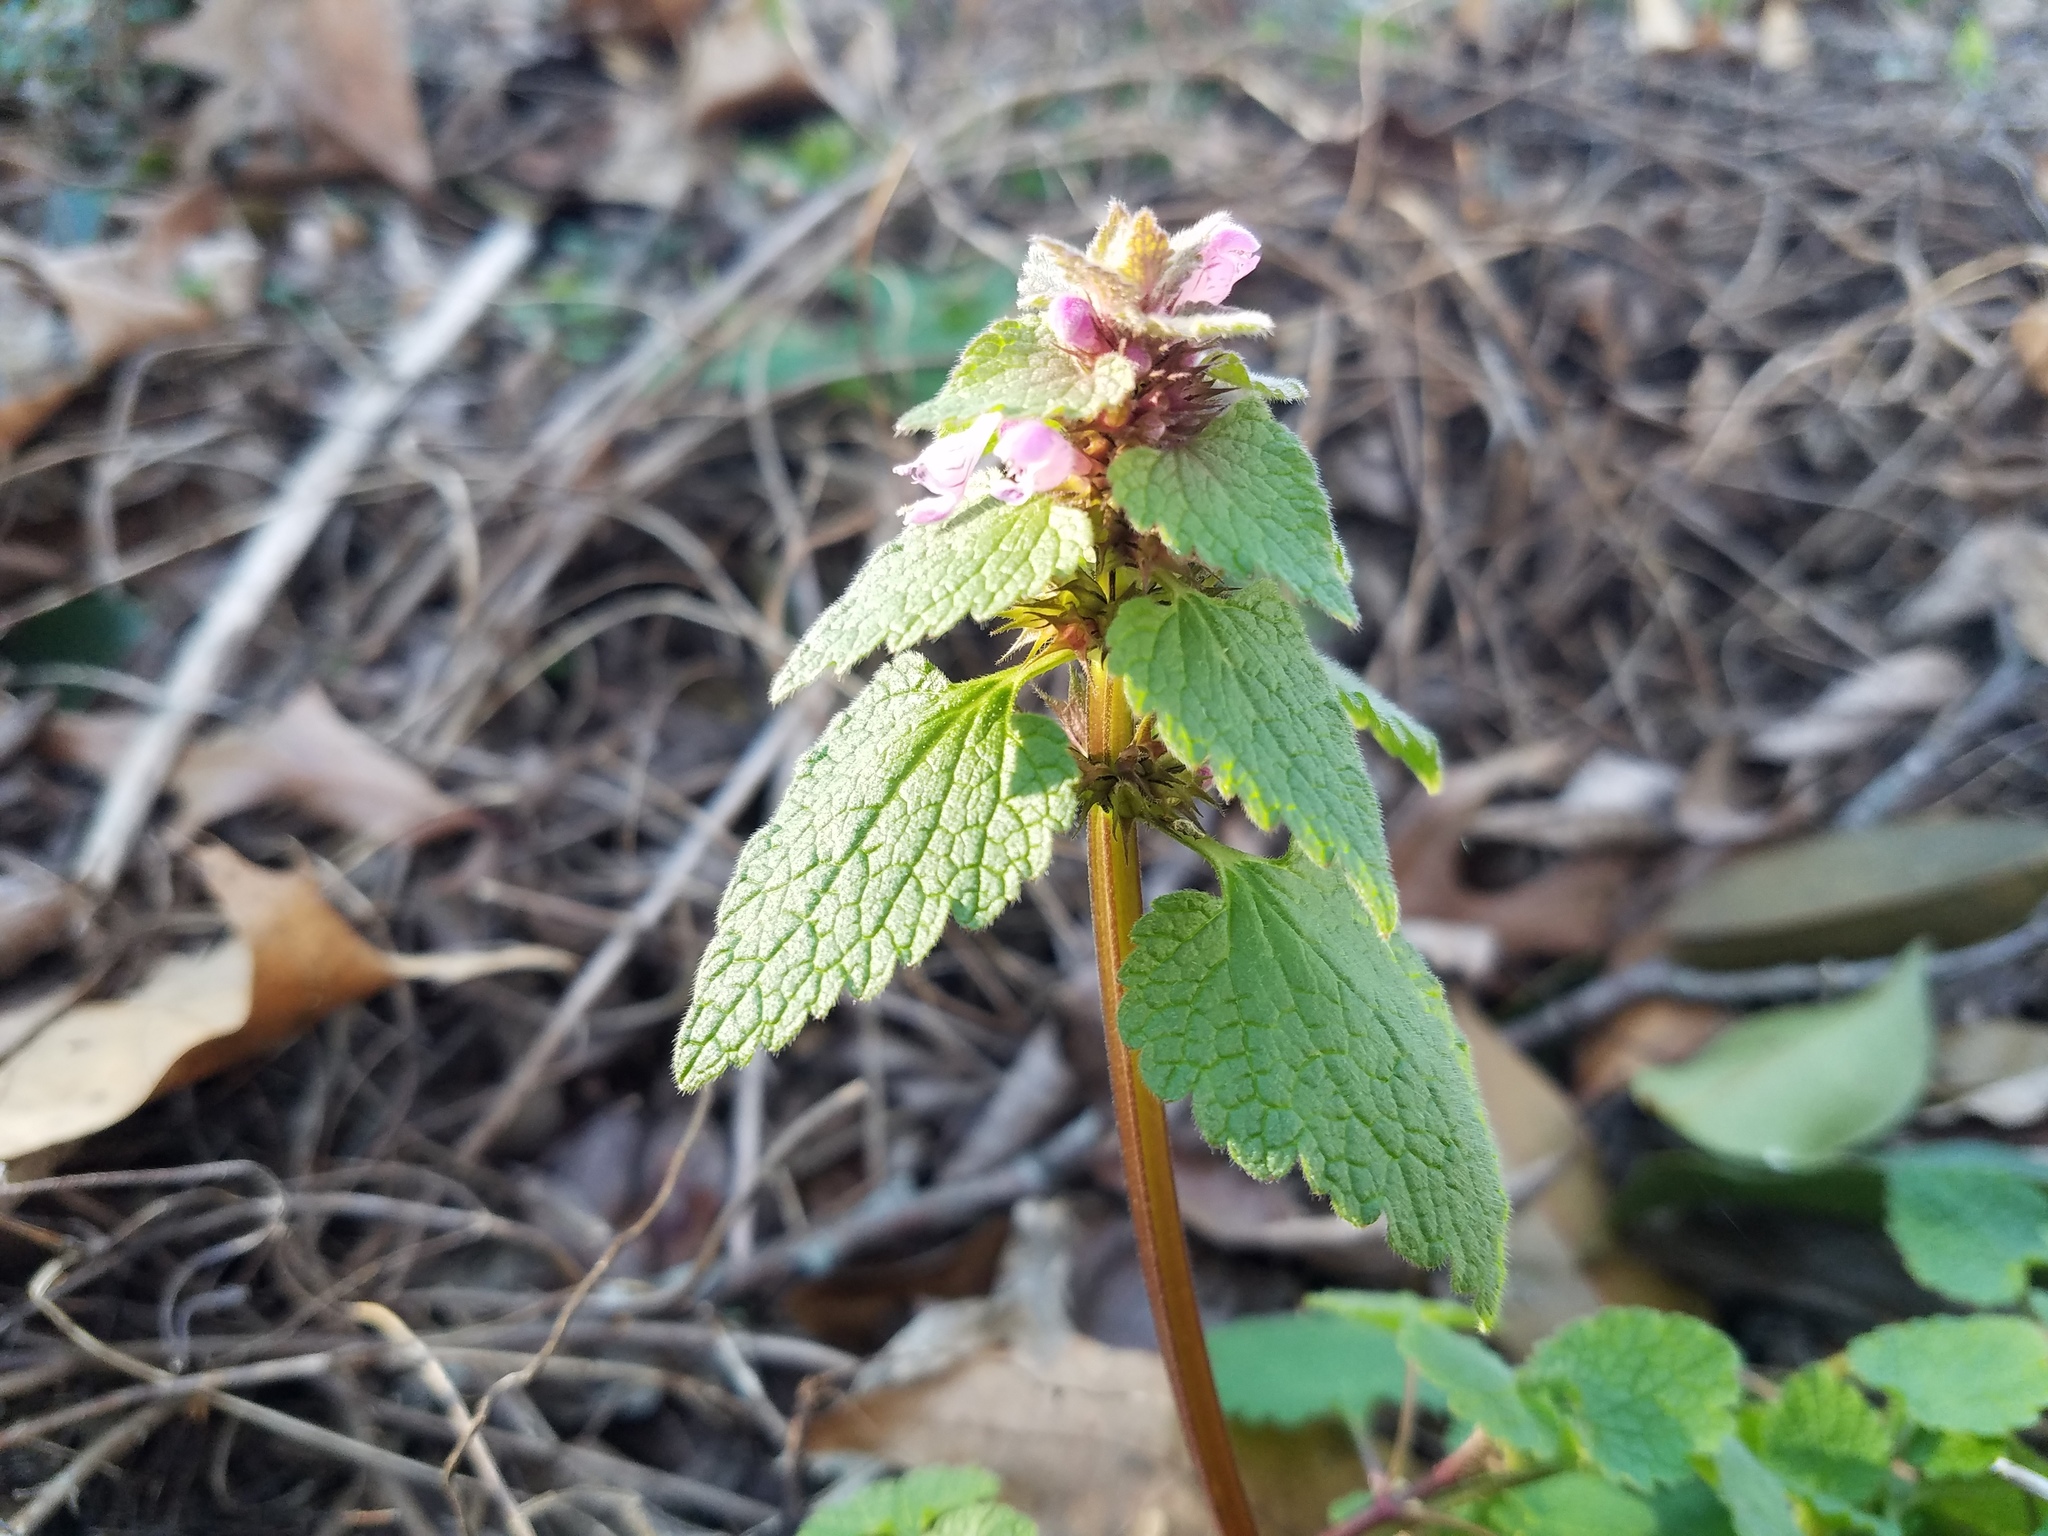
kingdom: Plantae
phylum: Tracheophyta
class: Magnoliopsida
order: Lamiales
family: Lamiaceae
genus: Lamium
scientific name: Lamium purpureum
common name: Red dead-nettle
